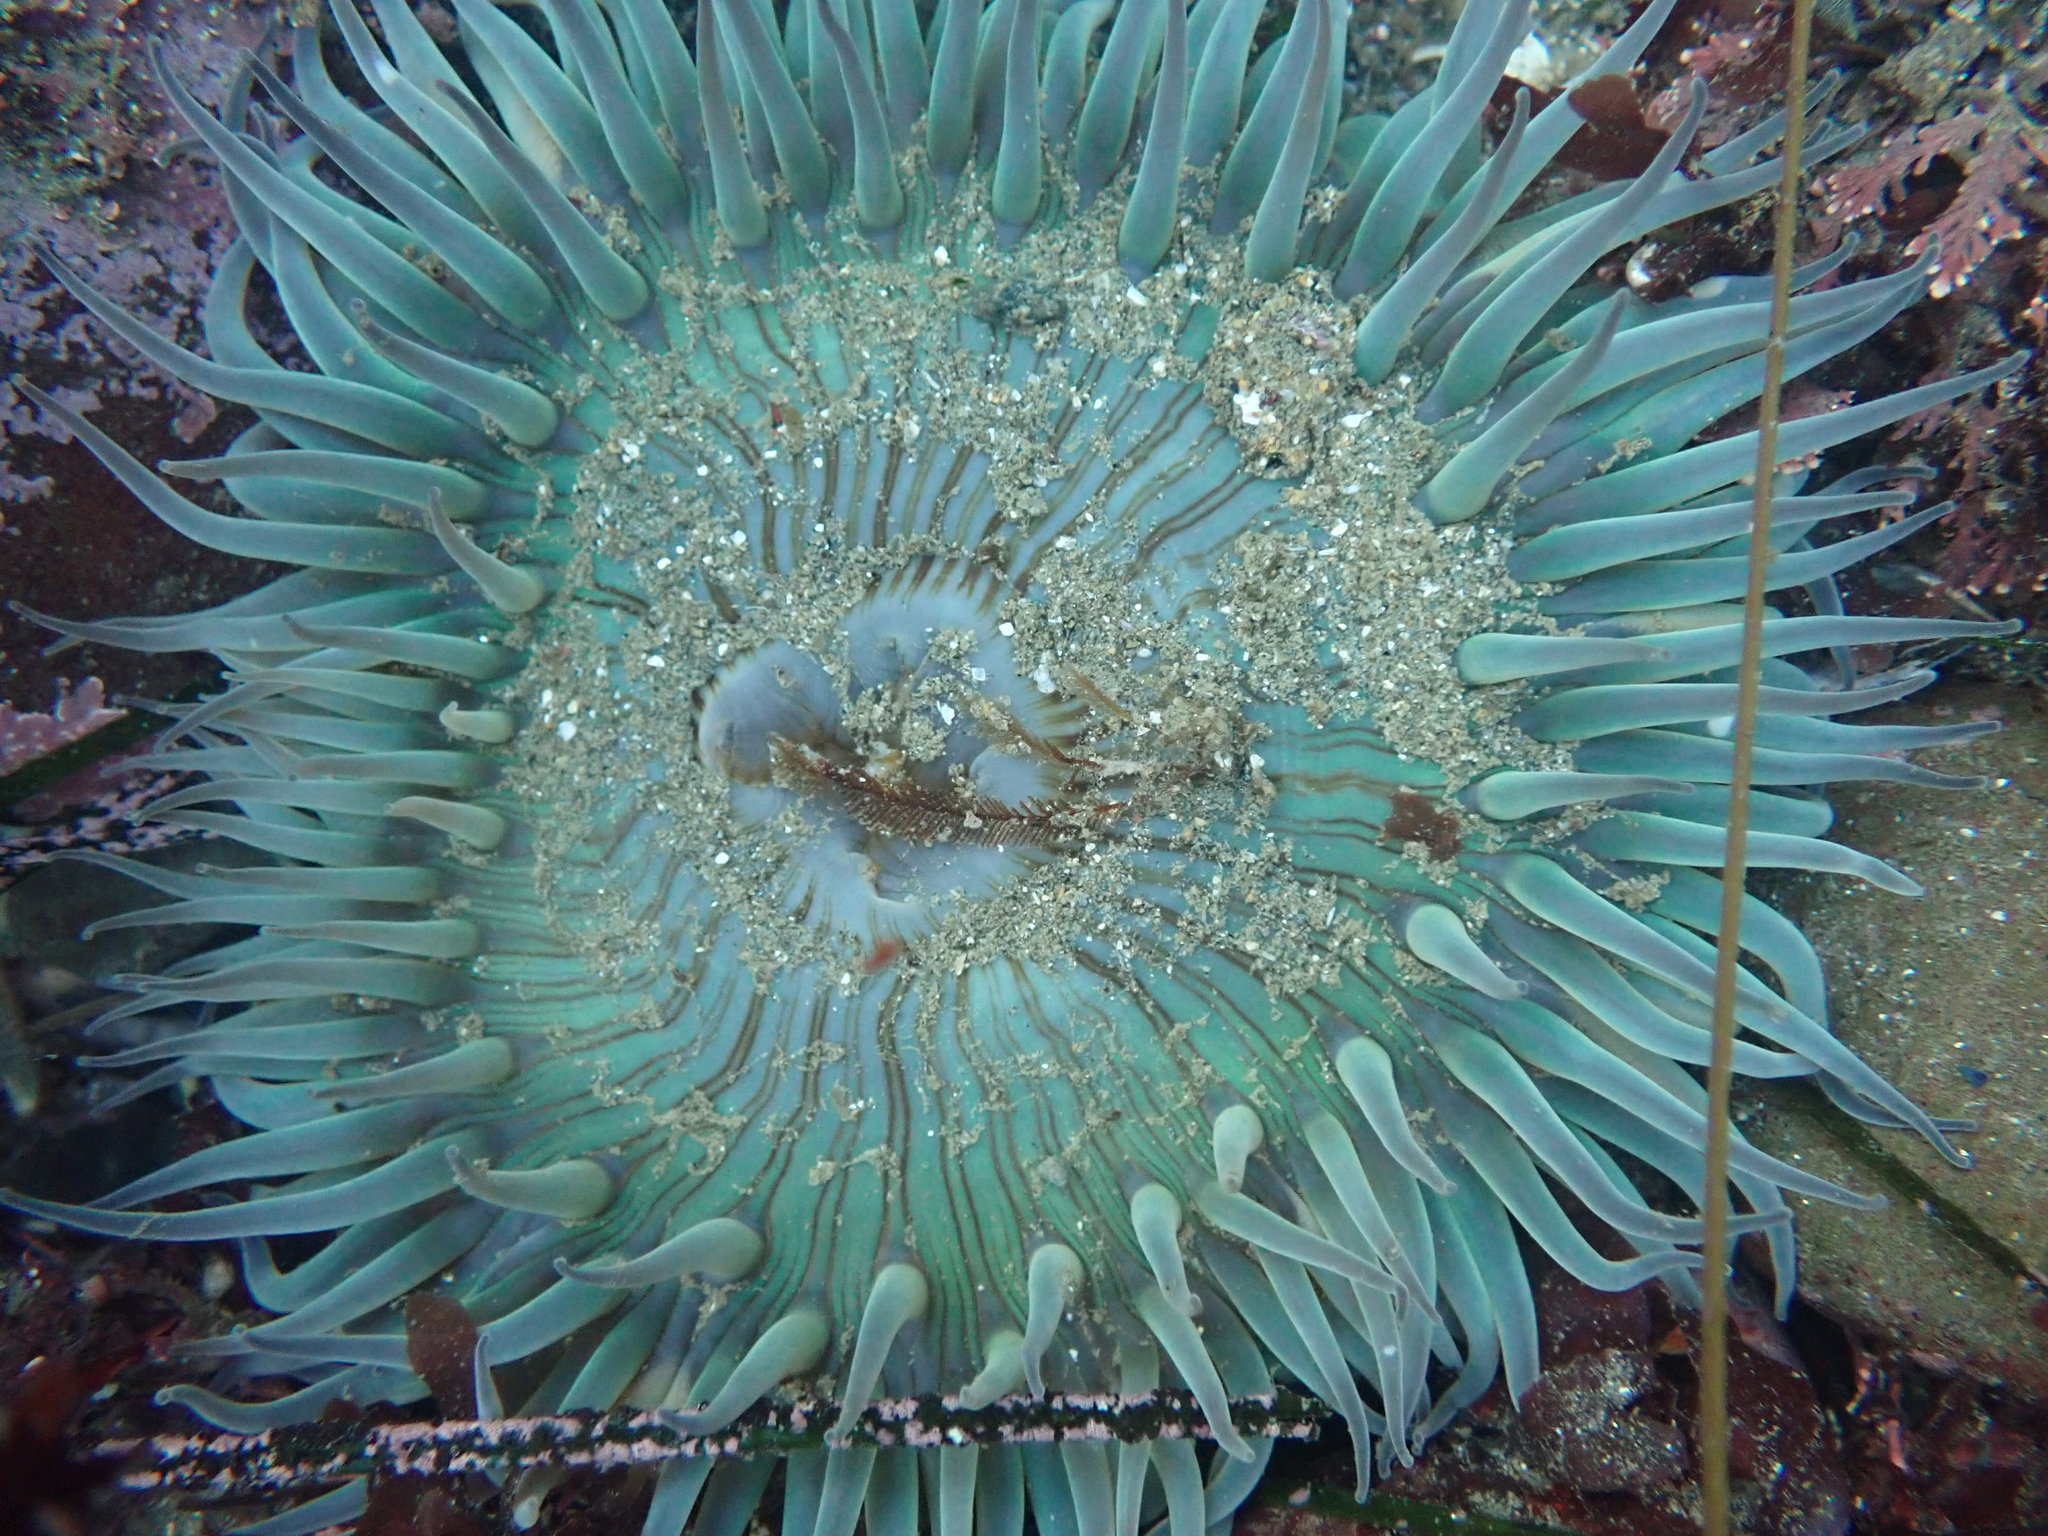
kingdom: Animalia
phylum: Cnidaria
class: Anthozoa
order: Actiniaria
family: Actiniidae
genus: Anthopleura
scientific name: Anthopleura sola
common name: Sun anemone
